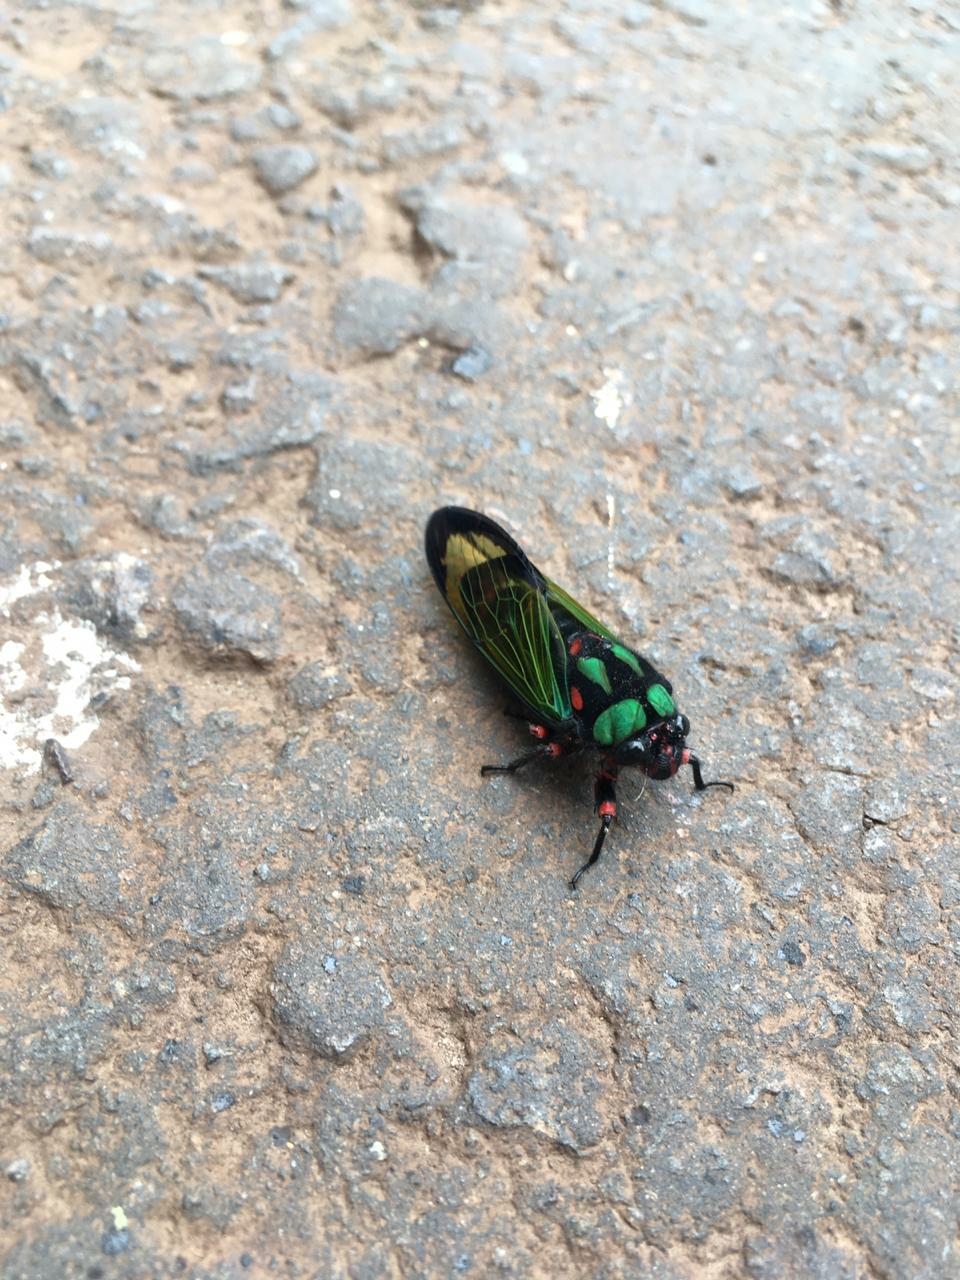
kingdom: Animalia
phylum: Arthropoda
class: Insecta
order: Hemiptera
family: Cicadidae
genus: Carineta
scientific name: Carineta diardi
